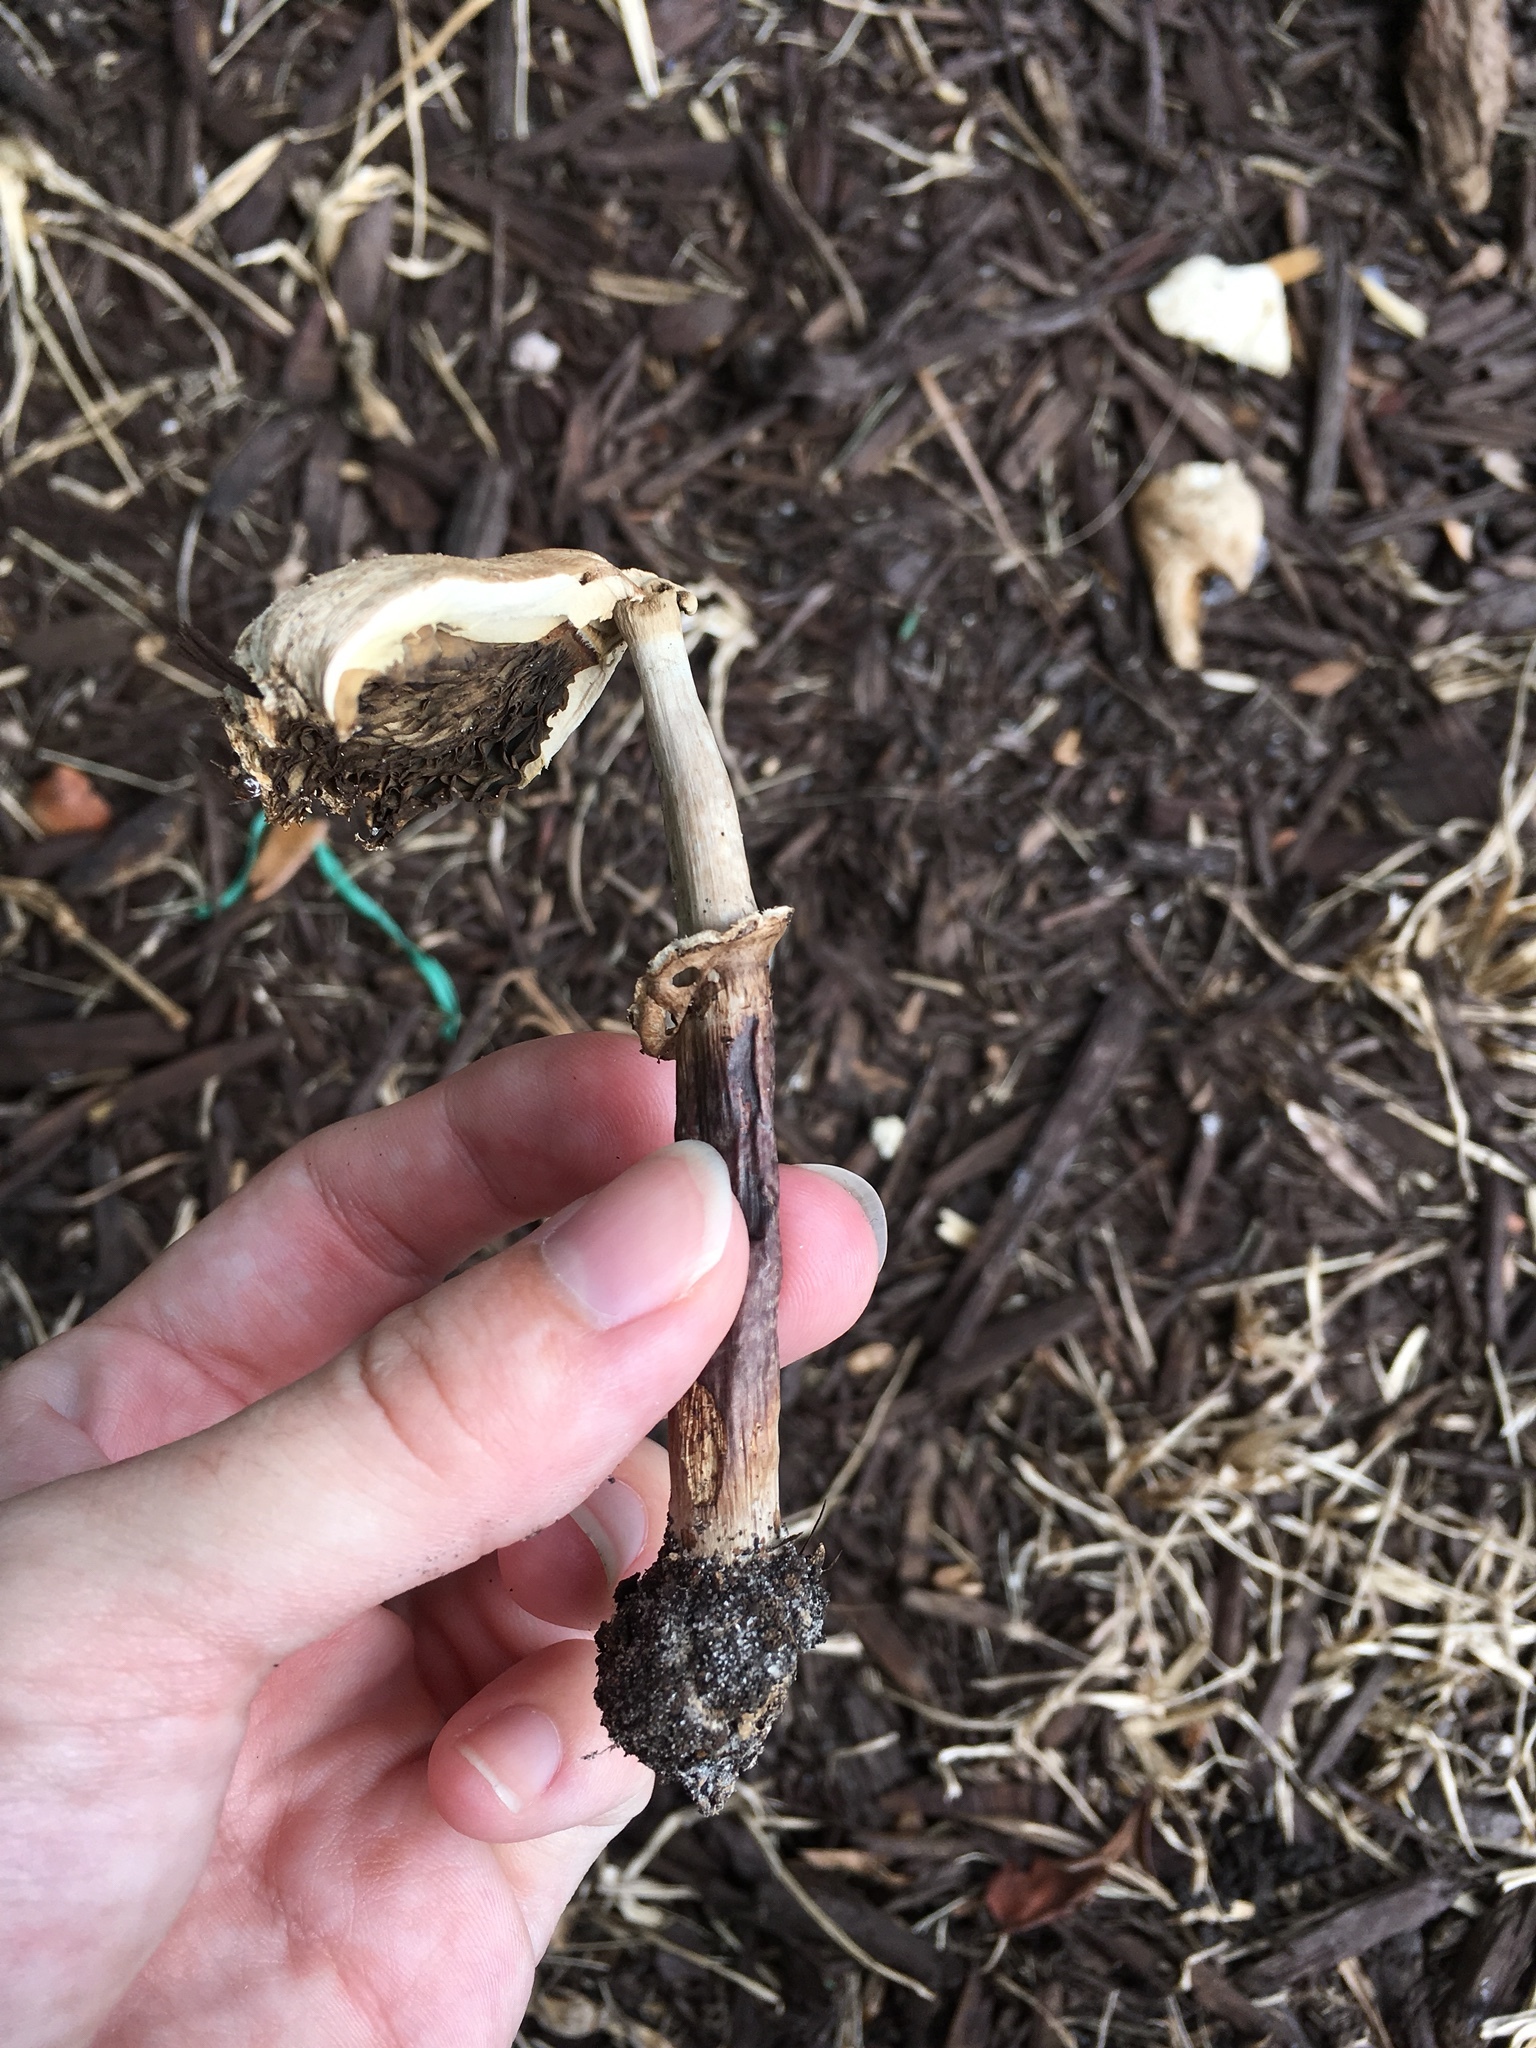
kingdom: Fungi
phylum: Basidiomycota
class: Agaricomycetes
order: Agaricales
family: Agaricaceae
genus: Chlorophyllum
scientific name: Chlorophyllum molybdites
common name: False parasol
